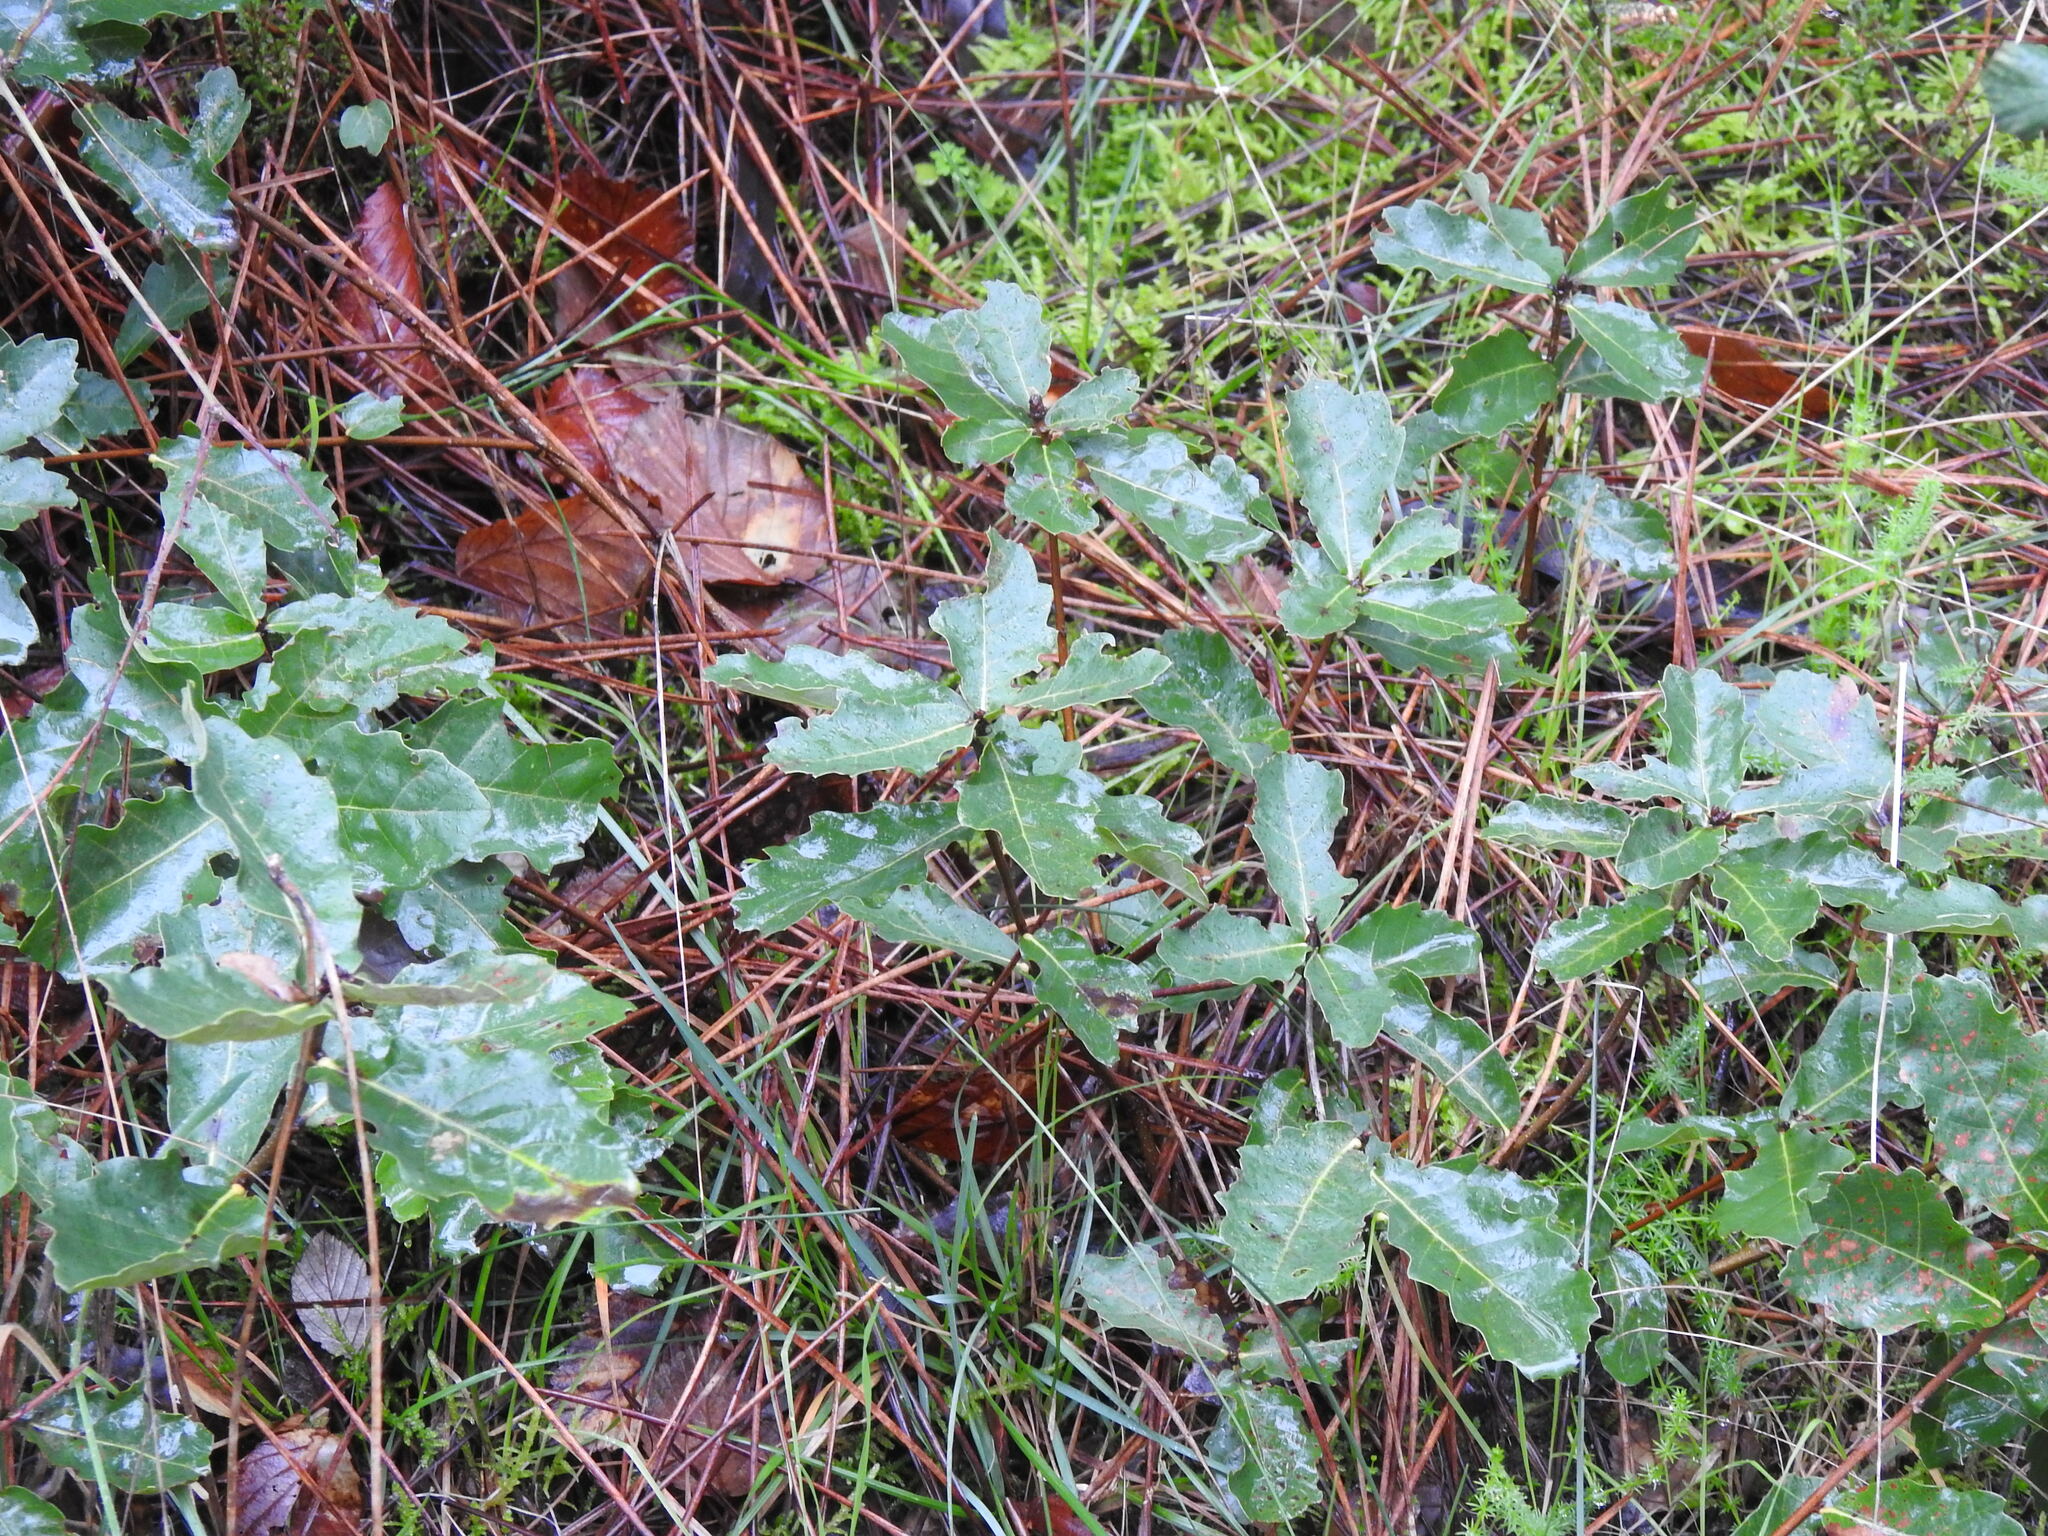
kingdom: Plantae
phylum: Tracheophyta
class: Magnoliopsida
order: Fagales
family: Fagaceae
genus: Quercus
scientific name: Quercus lusitanica
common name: Scrub gall oak
